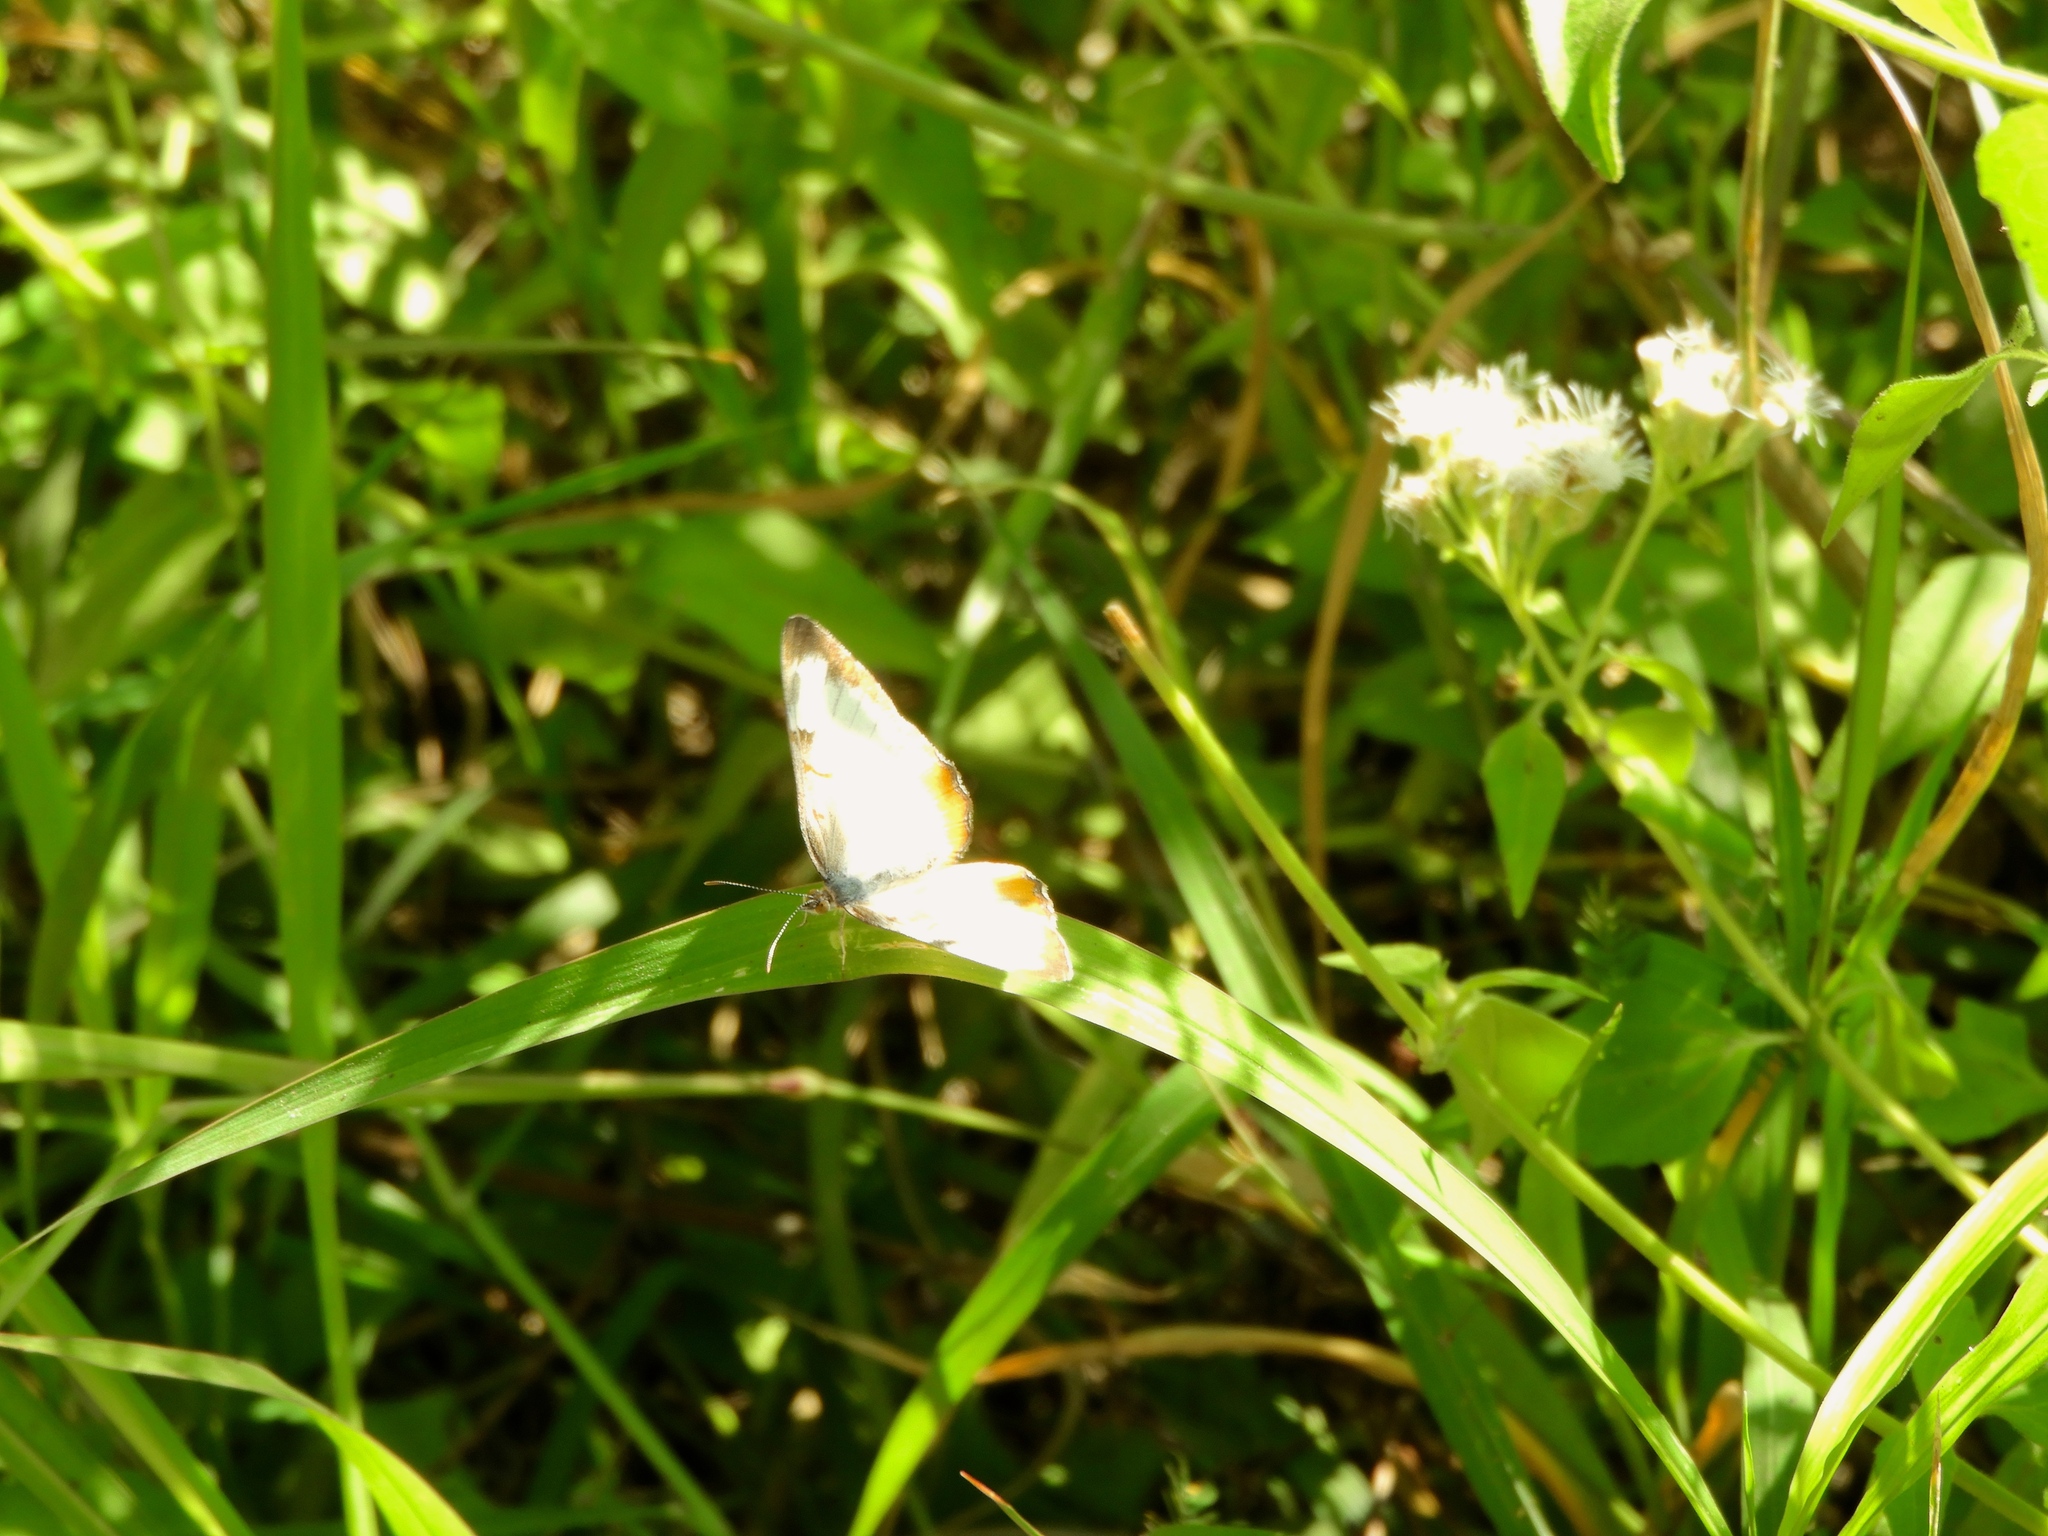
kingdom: Animalia
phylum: Arthropoda
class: Insecta
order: Lepidoptera
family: Nymphalidae
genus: Mestra
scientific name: Mestra amymone
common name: Common mestra
